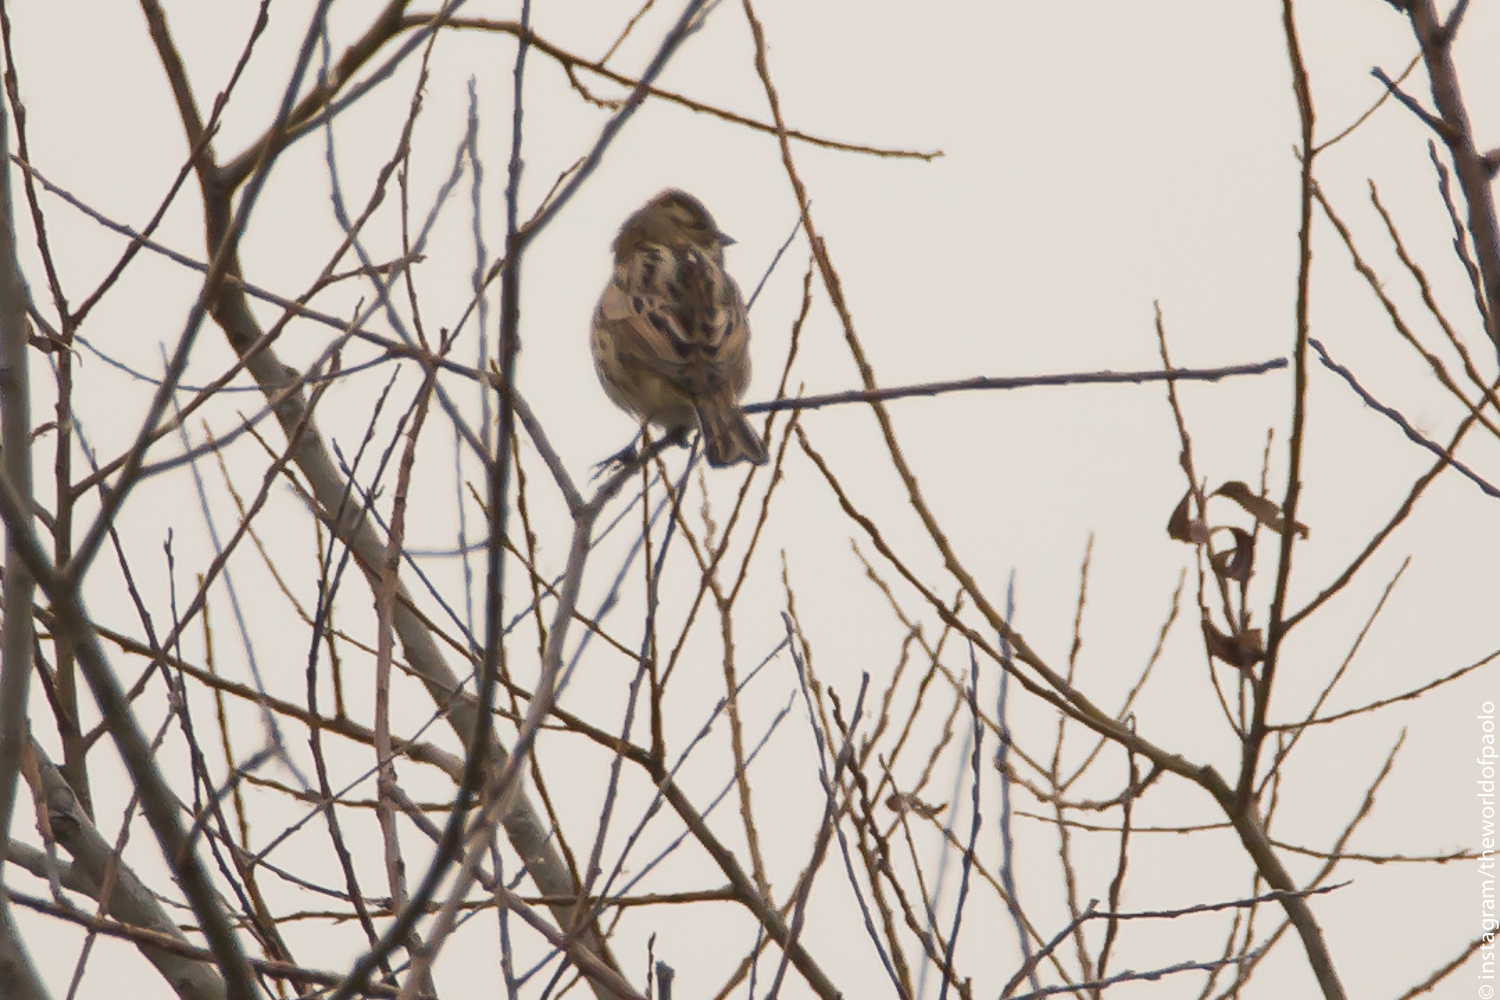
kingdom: Animalia
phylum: Chordata
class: Aves
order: Passeriformes
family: Emberizidae
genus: Emberiza
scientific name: Emberiza schoeniclus
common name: Reed bunting
